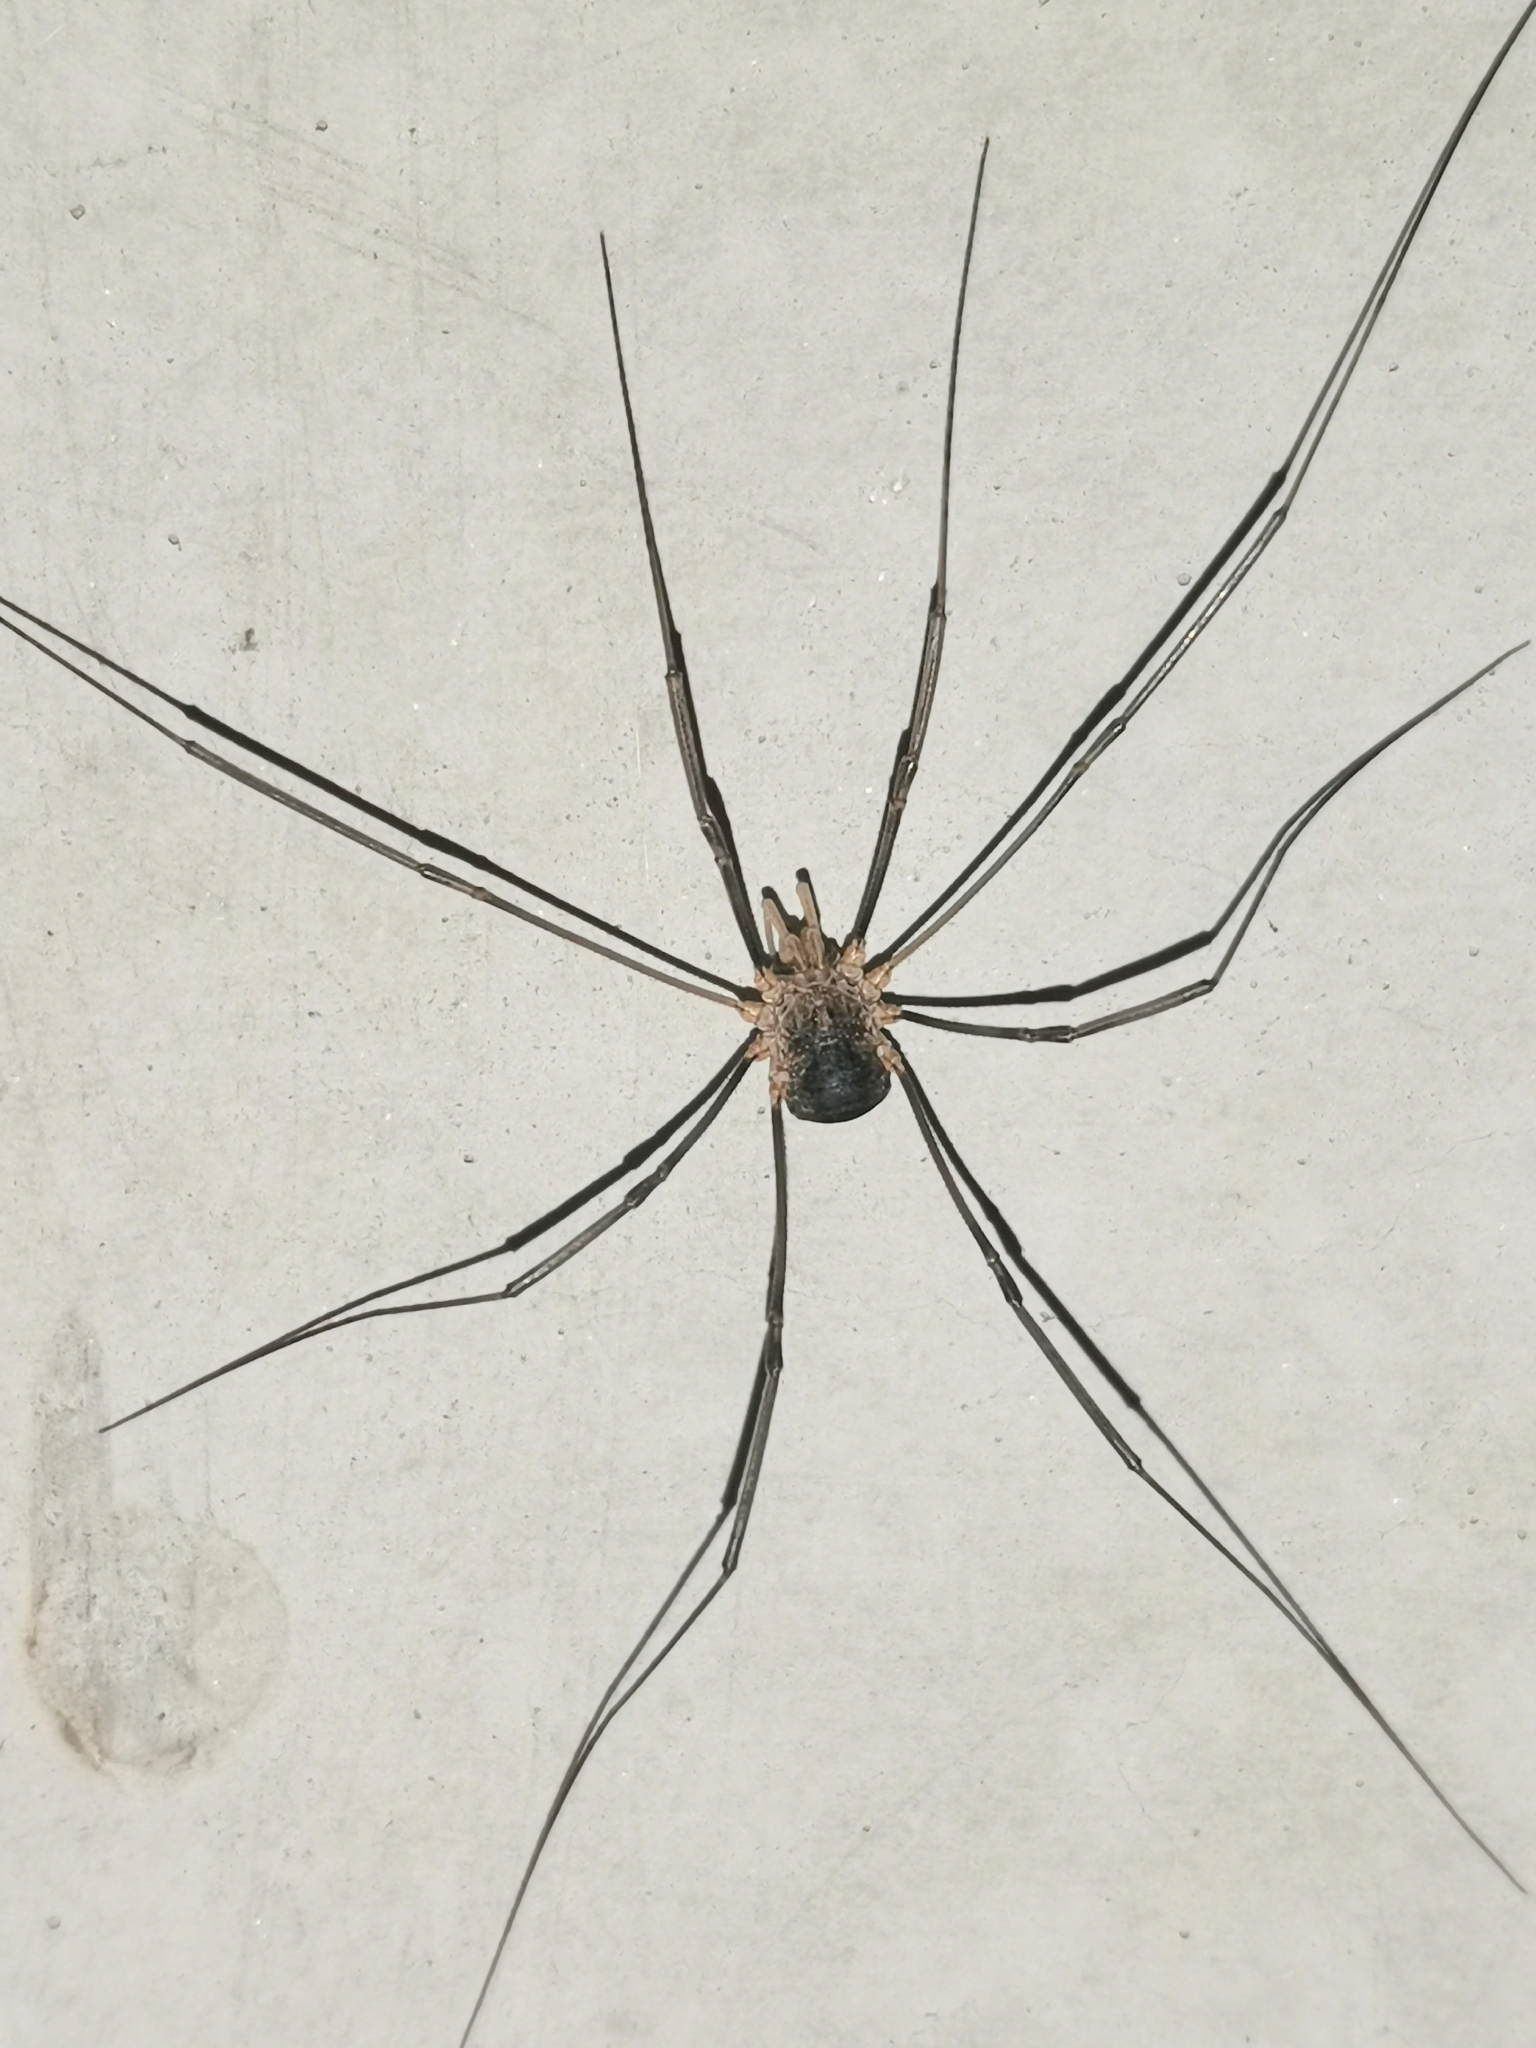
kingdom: Animalia
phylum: Arthropoda
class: Arachnida
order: Opiliones
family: Phalangiidae
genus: Phalangium
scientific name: Phalangium opilio
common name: Daddy longleg
